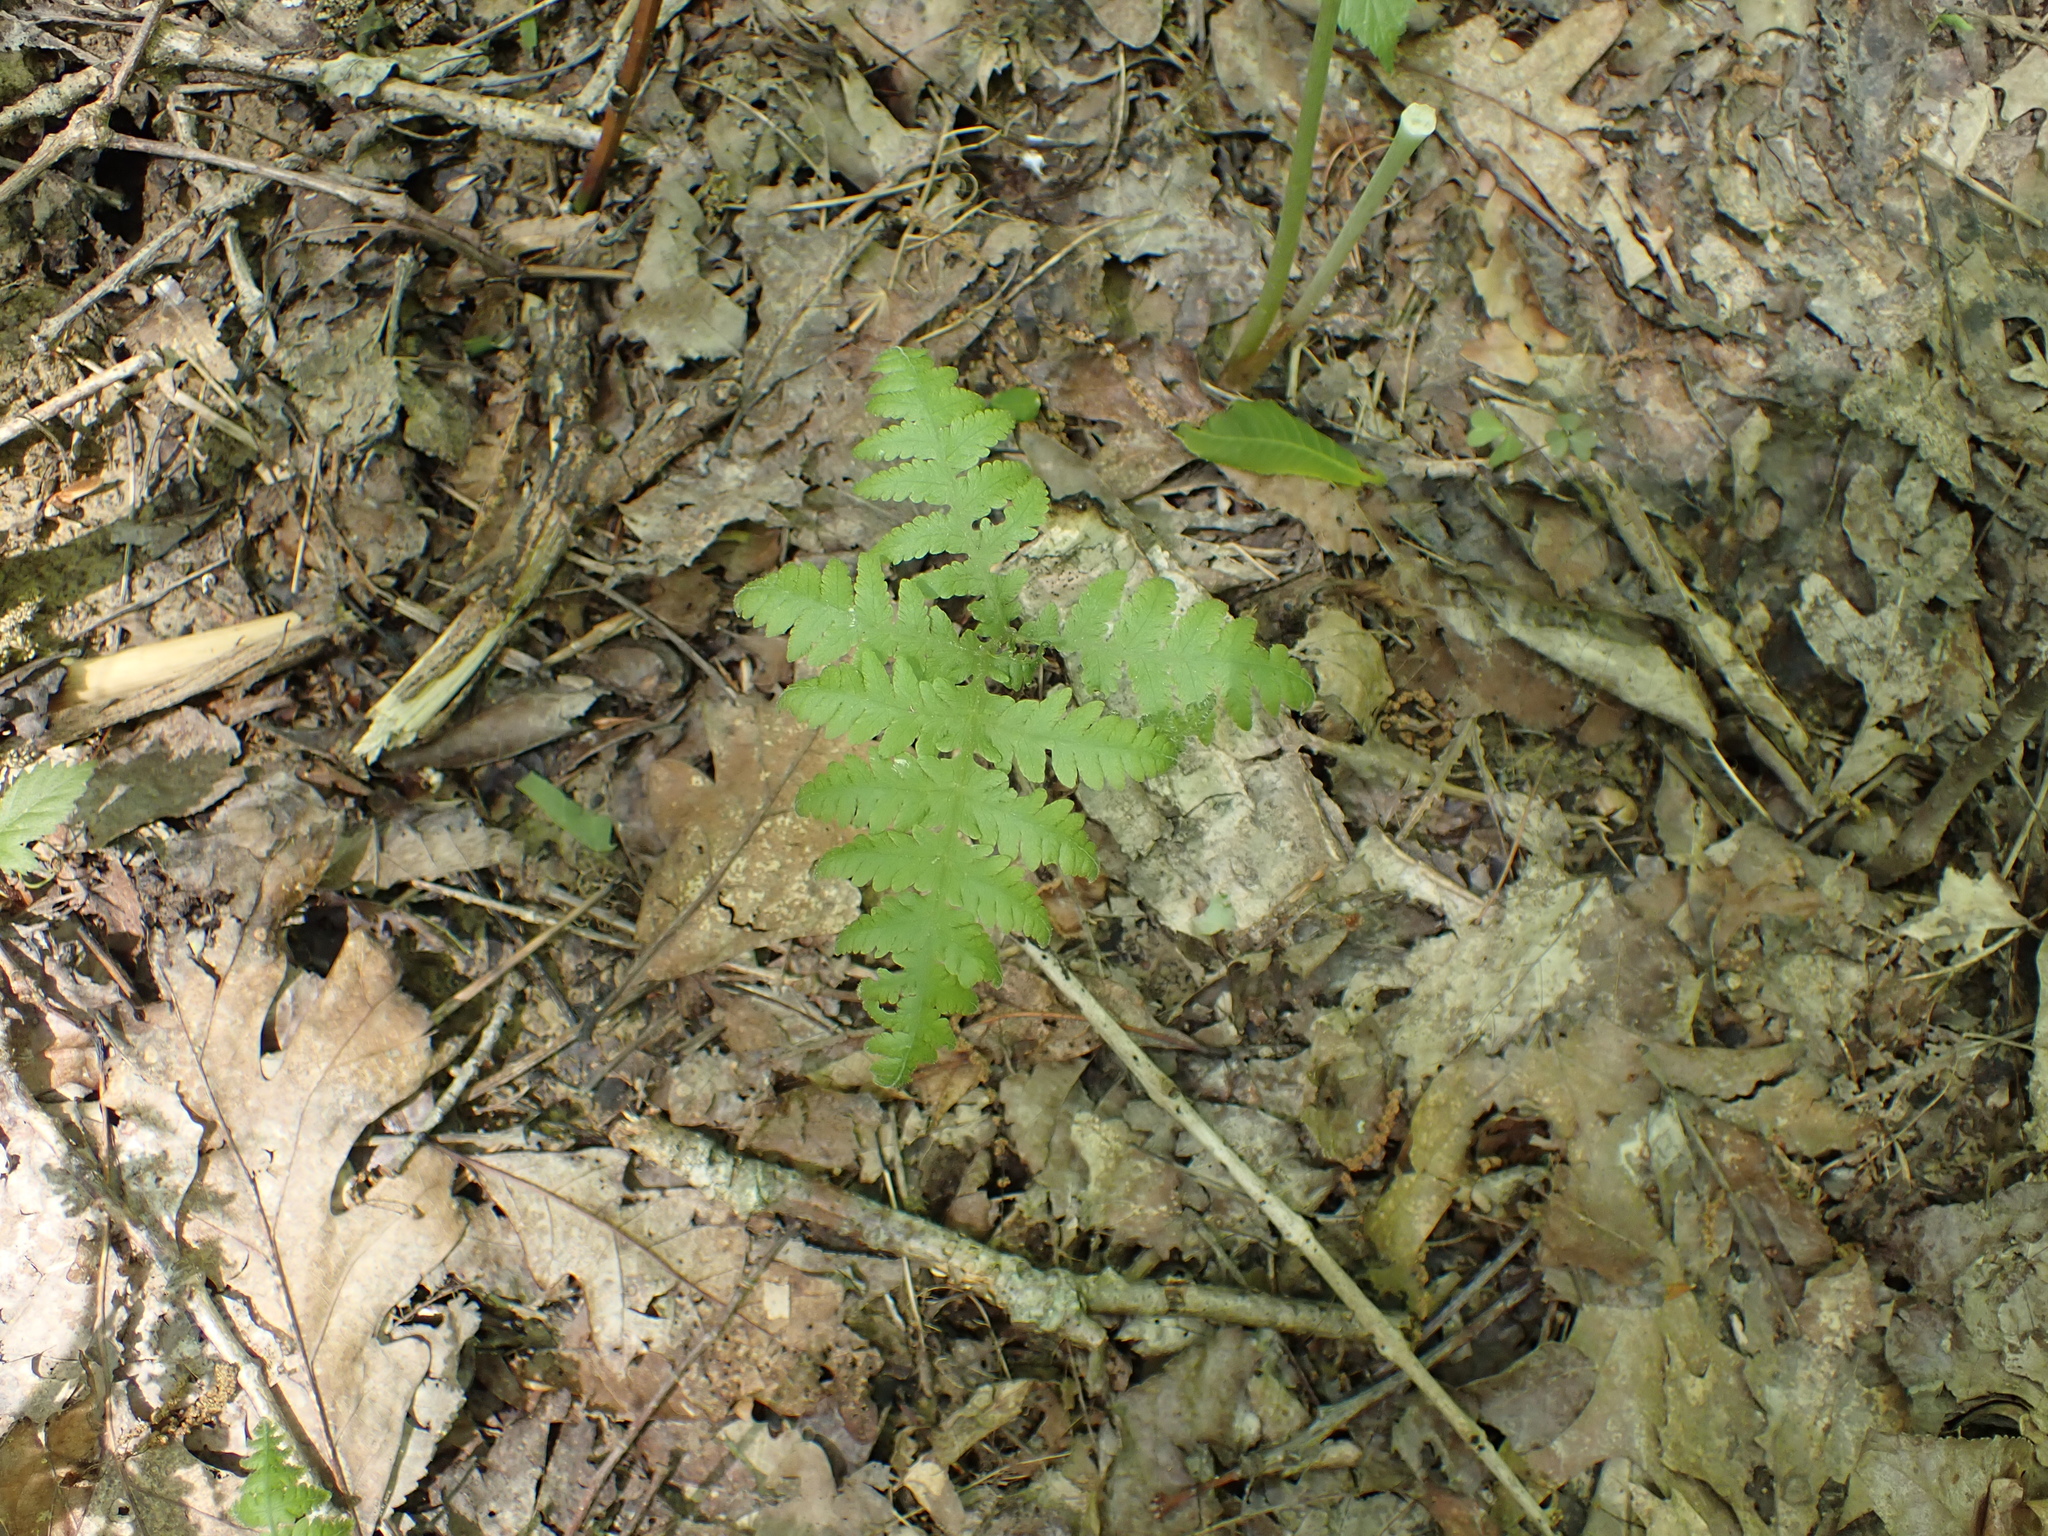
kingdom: Plantae
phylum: Tracheophyta
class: Polypodiopsida
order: Polypodiales
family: Thelypteridaceae
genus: Phegopteris
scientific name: Phegopteris hexagonoptera
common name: Broad beech fern
